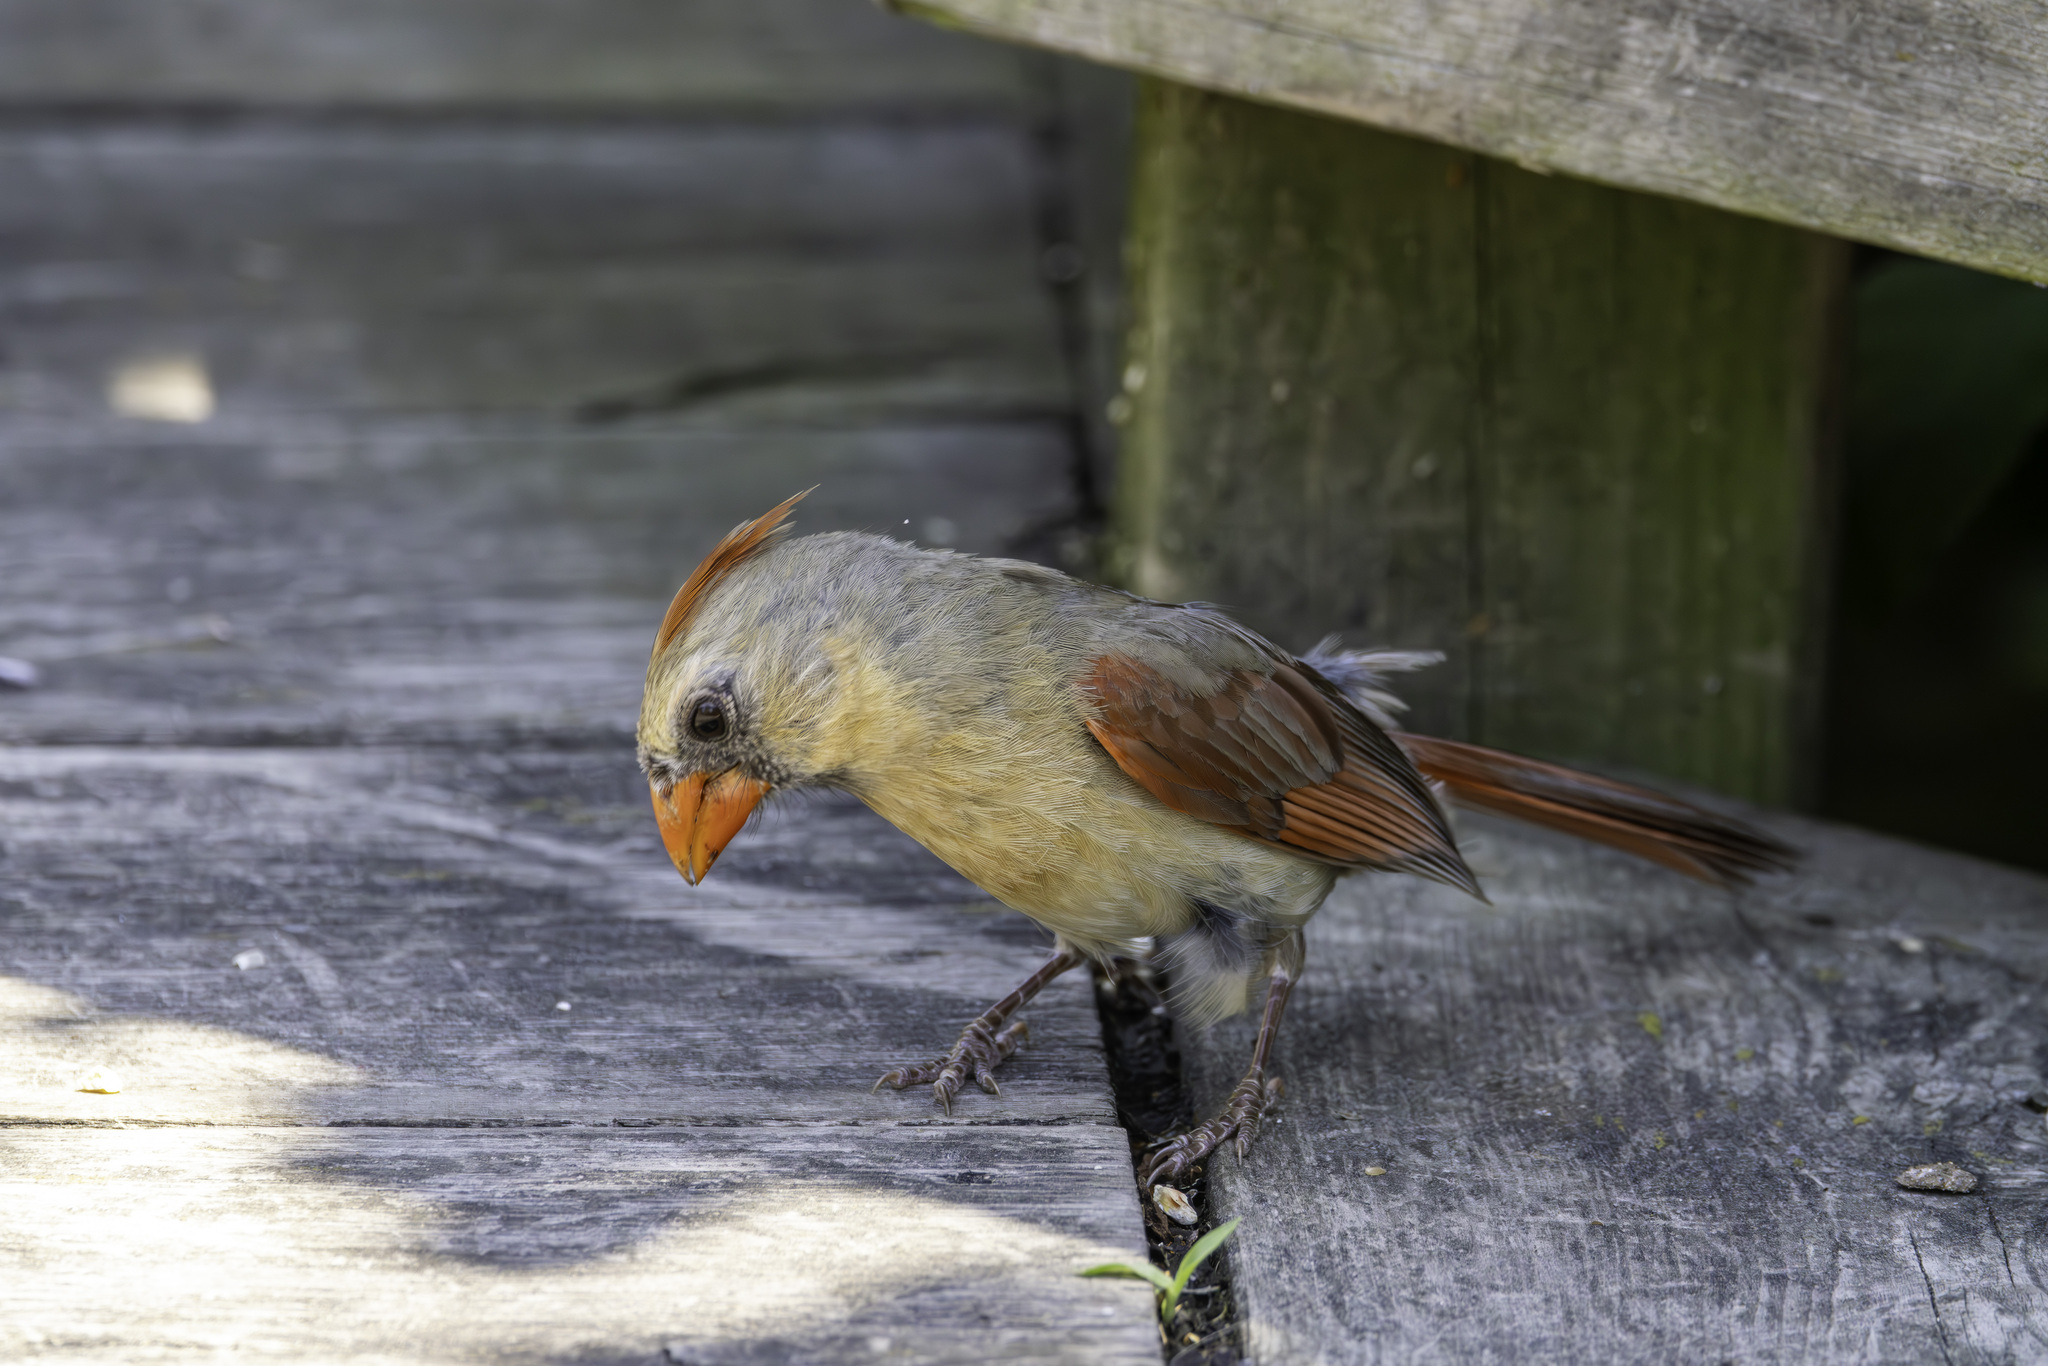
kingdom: Animalia
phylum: Chordata
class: Aves
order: Passeriformes
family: Cardinalidae
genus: Cardinalis
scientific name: Cardinalis cardinalis
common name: Northern cardinal
